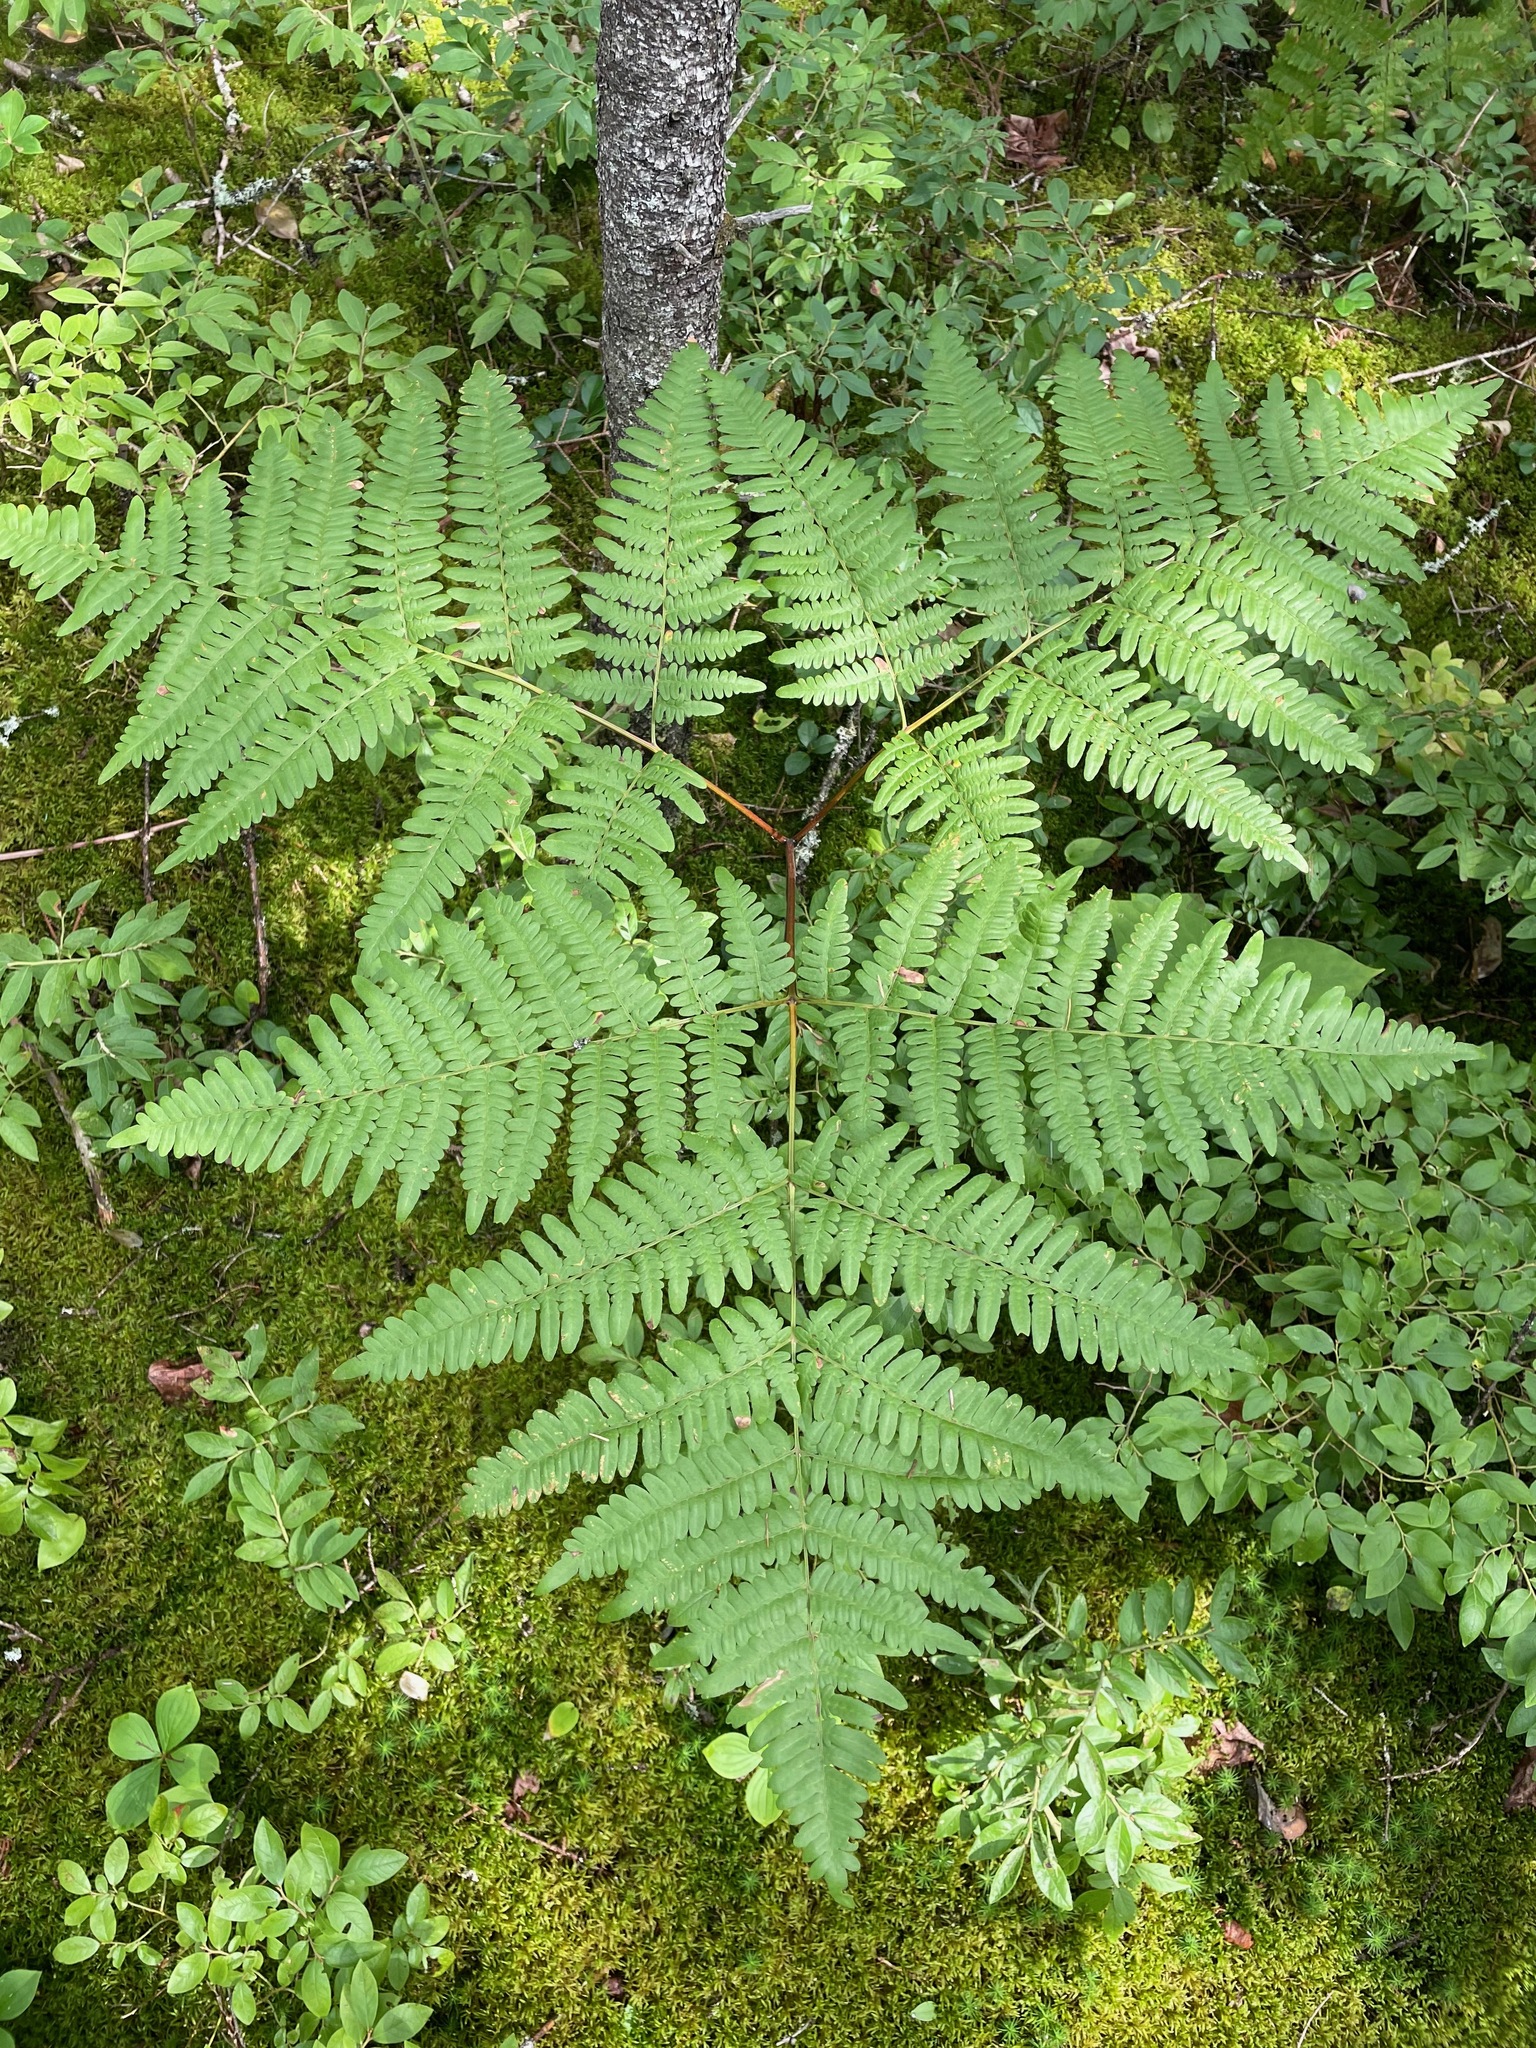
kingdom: Plantae
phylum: Tracheophyta
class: Polypodiopsida
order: Polypodiales
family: Dennstaedtiaceae
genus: Pteridium
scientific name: Pteridium aquilinum
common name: Bracken
